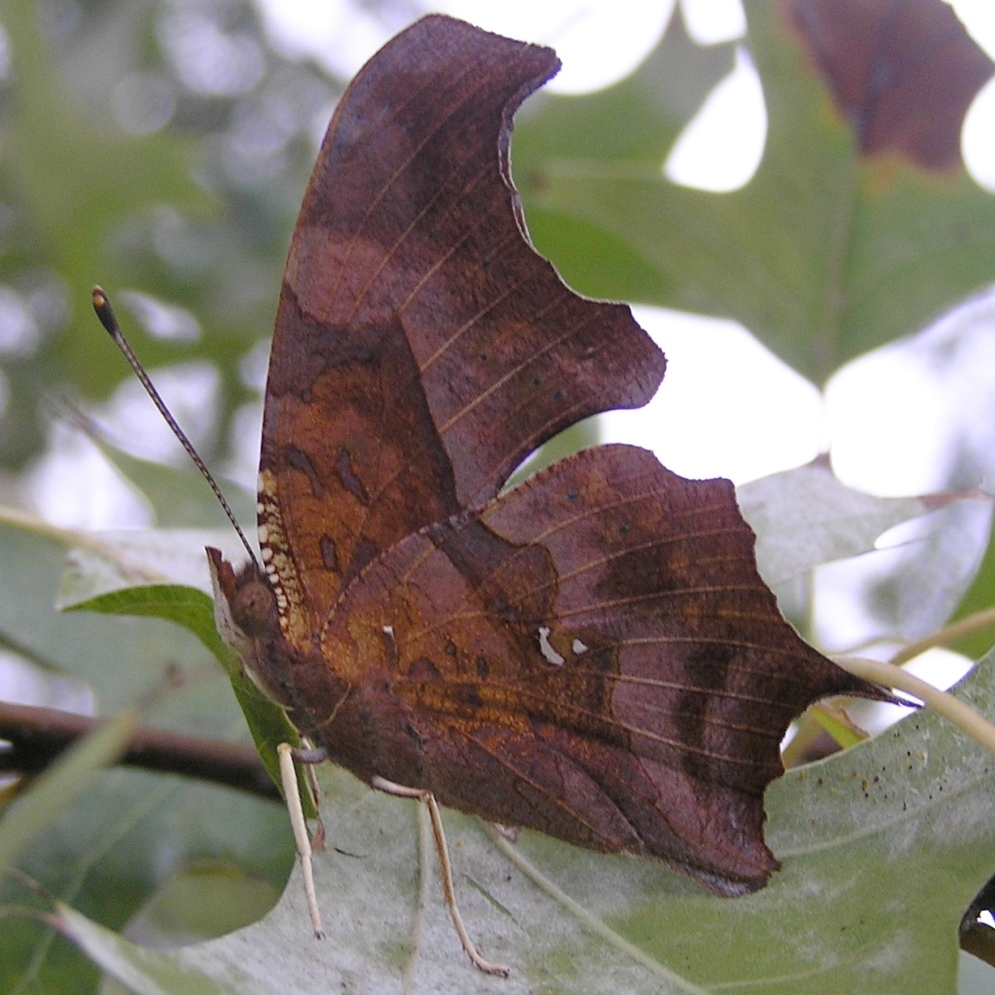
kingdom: Animalia
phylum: Arthropoda
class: Insecta
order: Lepidoptera
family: Nymphalidae
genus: Polygonia
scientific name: Polygonia interrogationis
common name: Question mark
